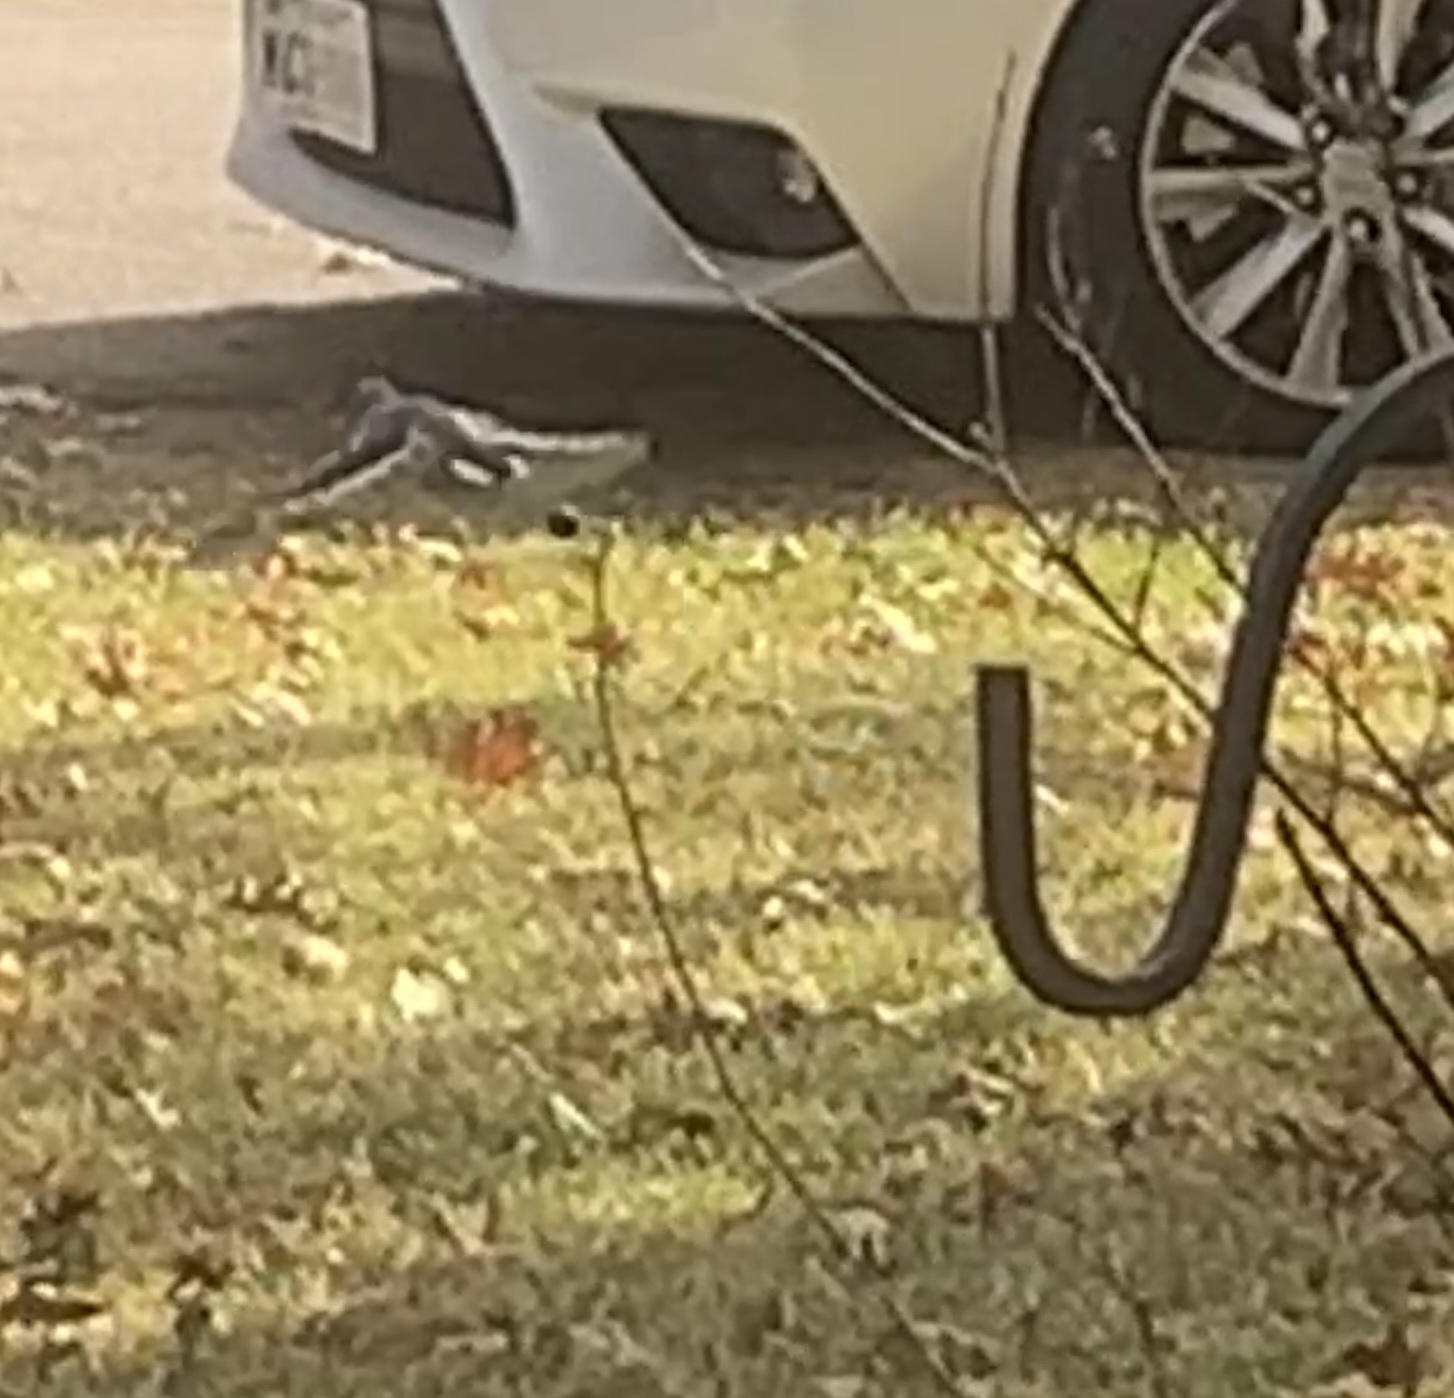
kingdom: Animalia
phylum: Chordata
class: Aves
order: Passeriformes
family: Corvidae
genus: Cyanocitta
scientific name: Cyanocitta cristata
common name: Blue jay
